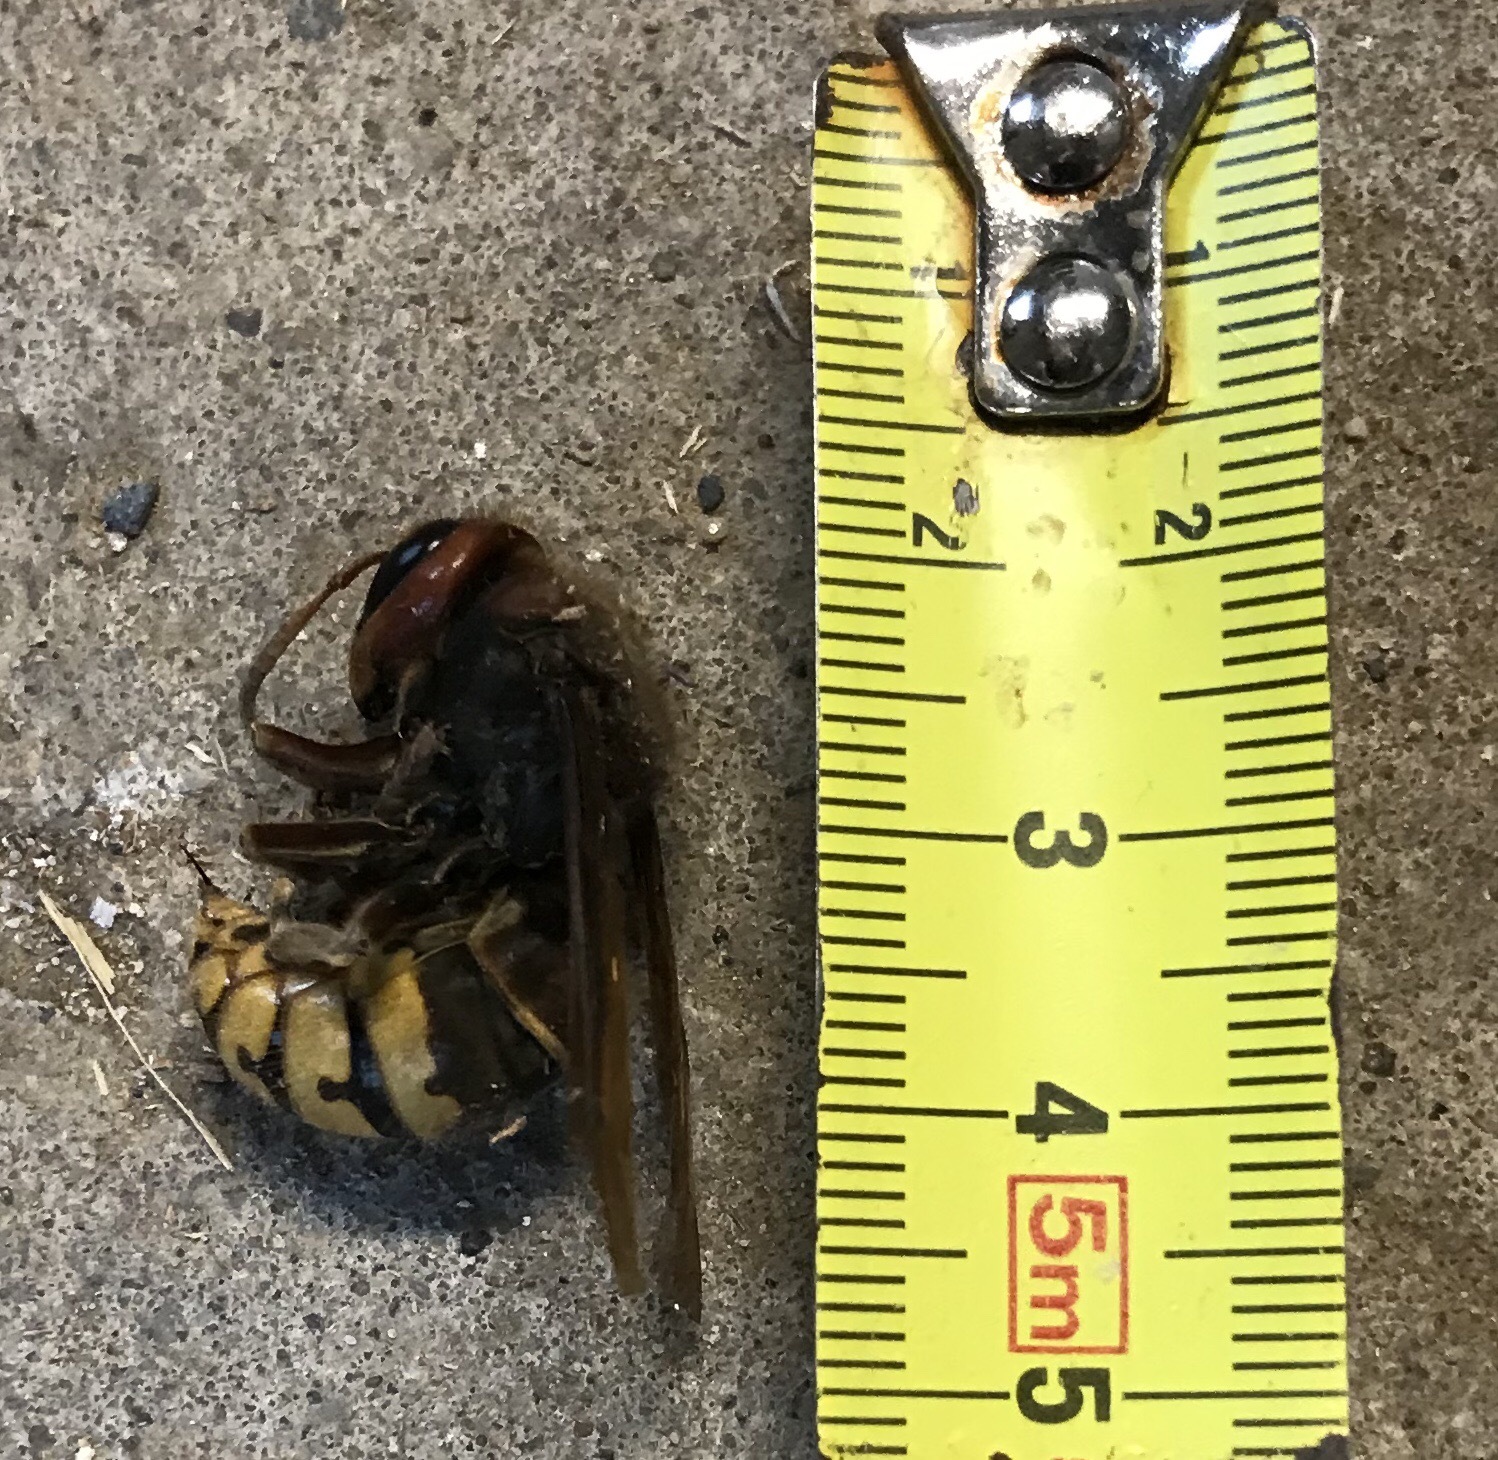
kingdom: Animalia
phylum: Arthropoda
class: Insecta
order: Hymenoptera
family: Vespidae
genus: Vespa
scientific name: Vespa crabro
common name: Hornet
